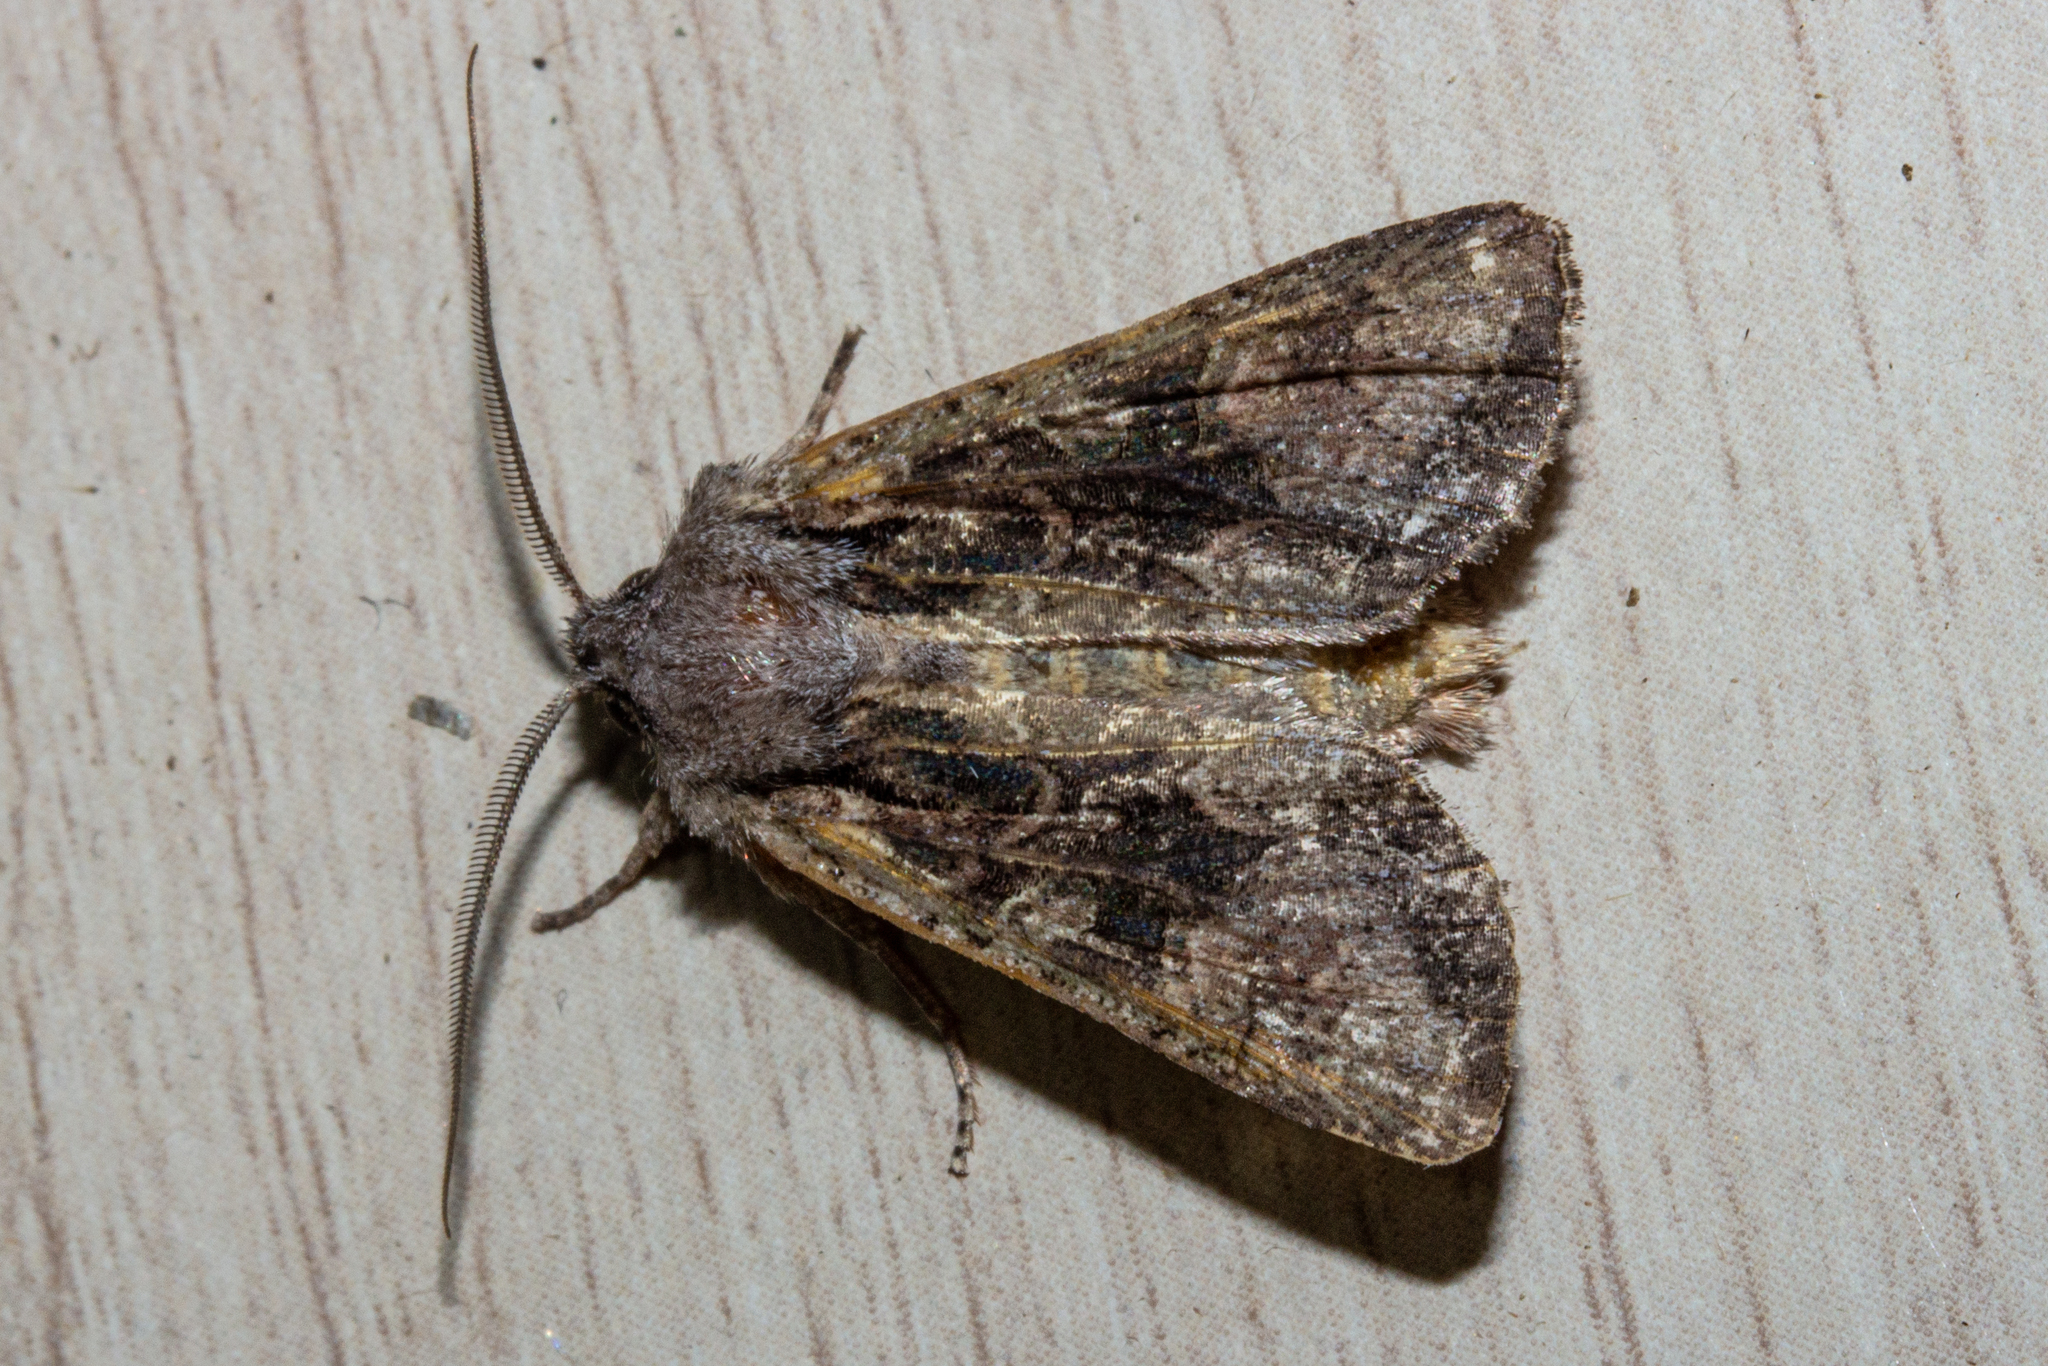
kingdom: Animalia
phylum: Arthropoda
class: Insecta
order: Lepidoptera
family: Noctuidae
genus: Ichneutica
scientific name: Ichneutica mutans
